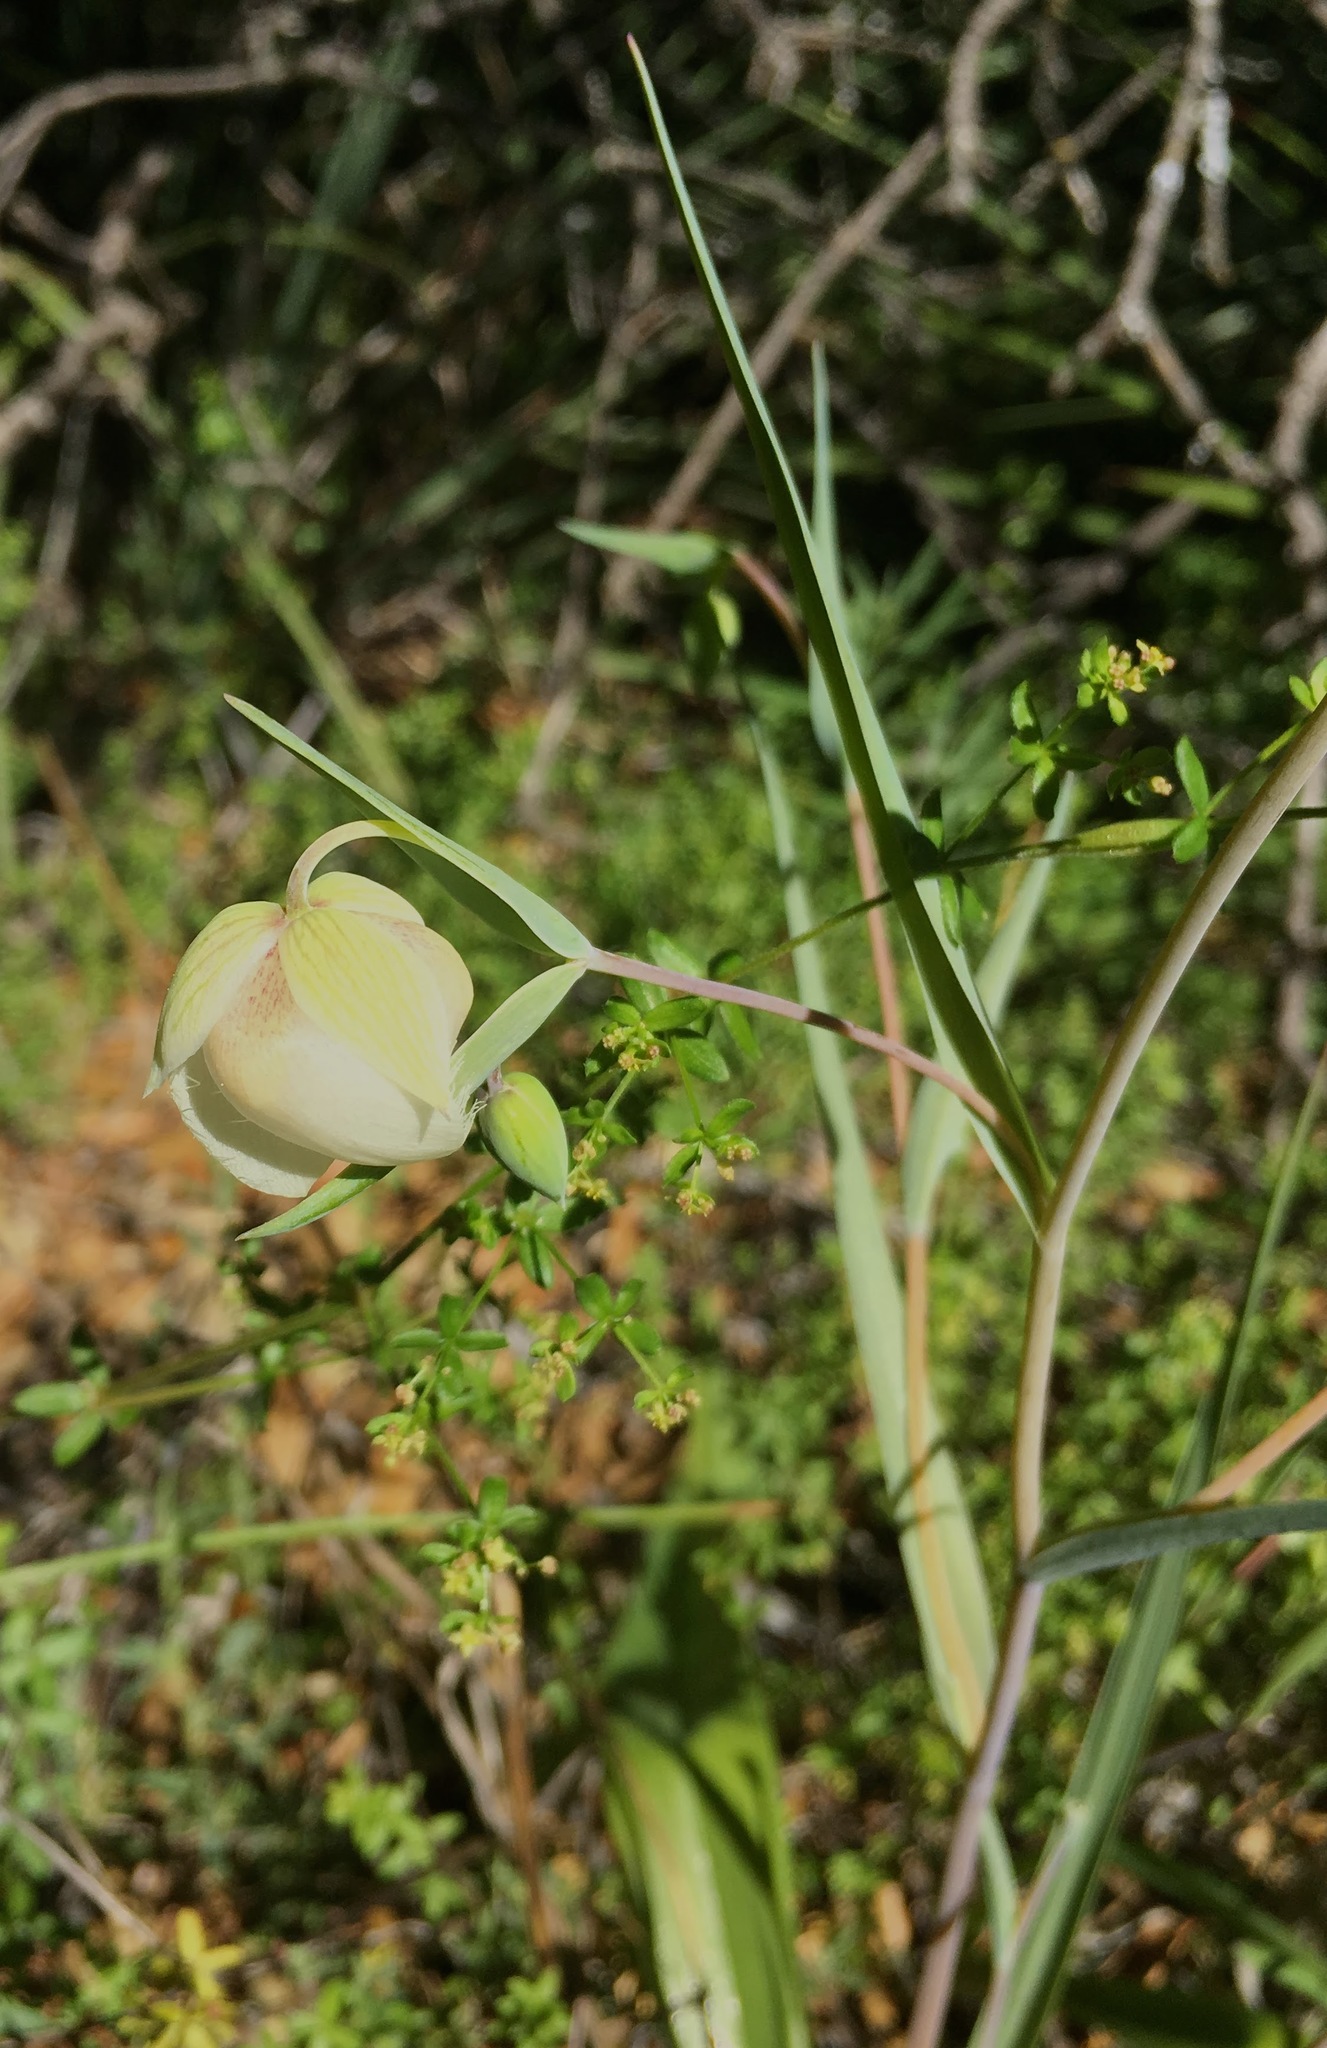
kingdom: Plantae
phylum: Tracheophyta
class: Liliopsida
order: Liliales
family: Liliaceae
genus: Calochortus
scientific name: Calochortus albus
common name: Fairy-lantern
